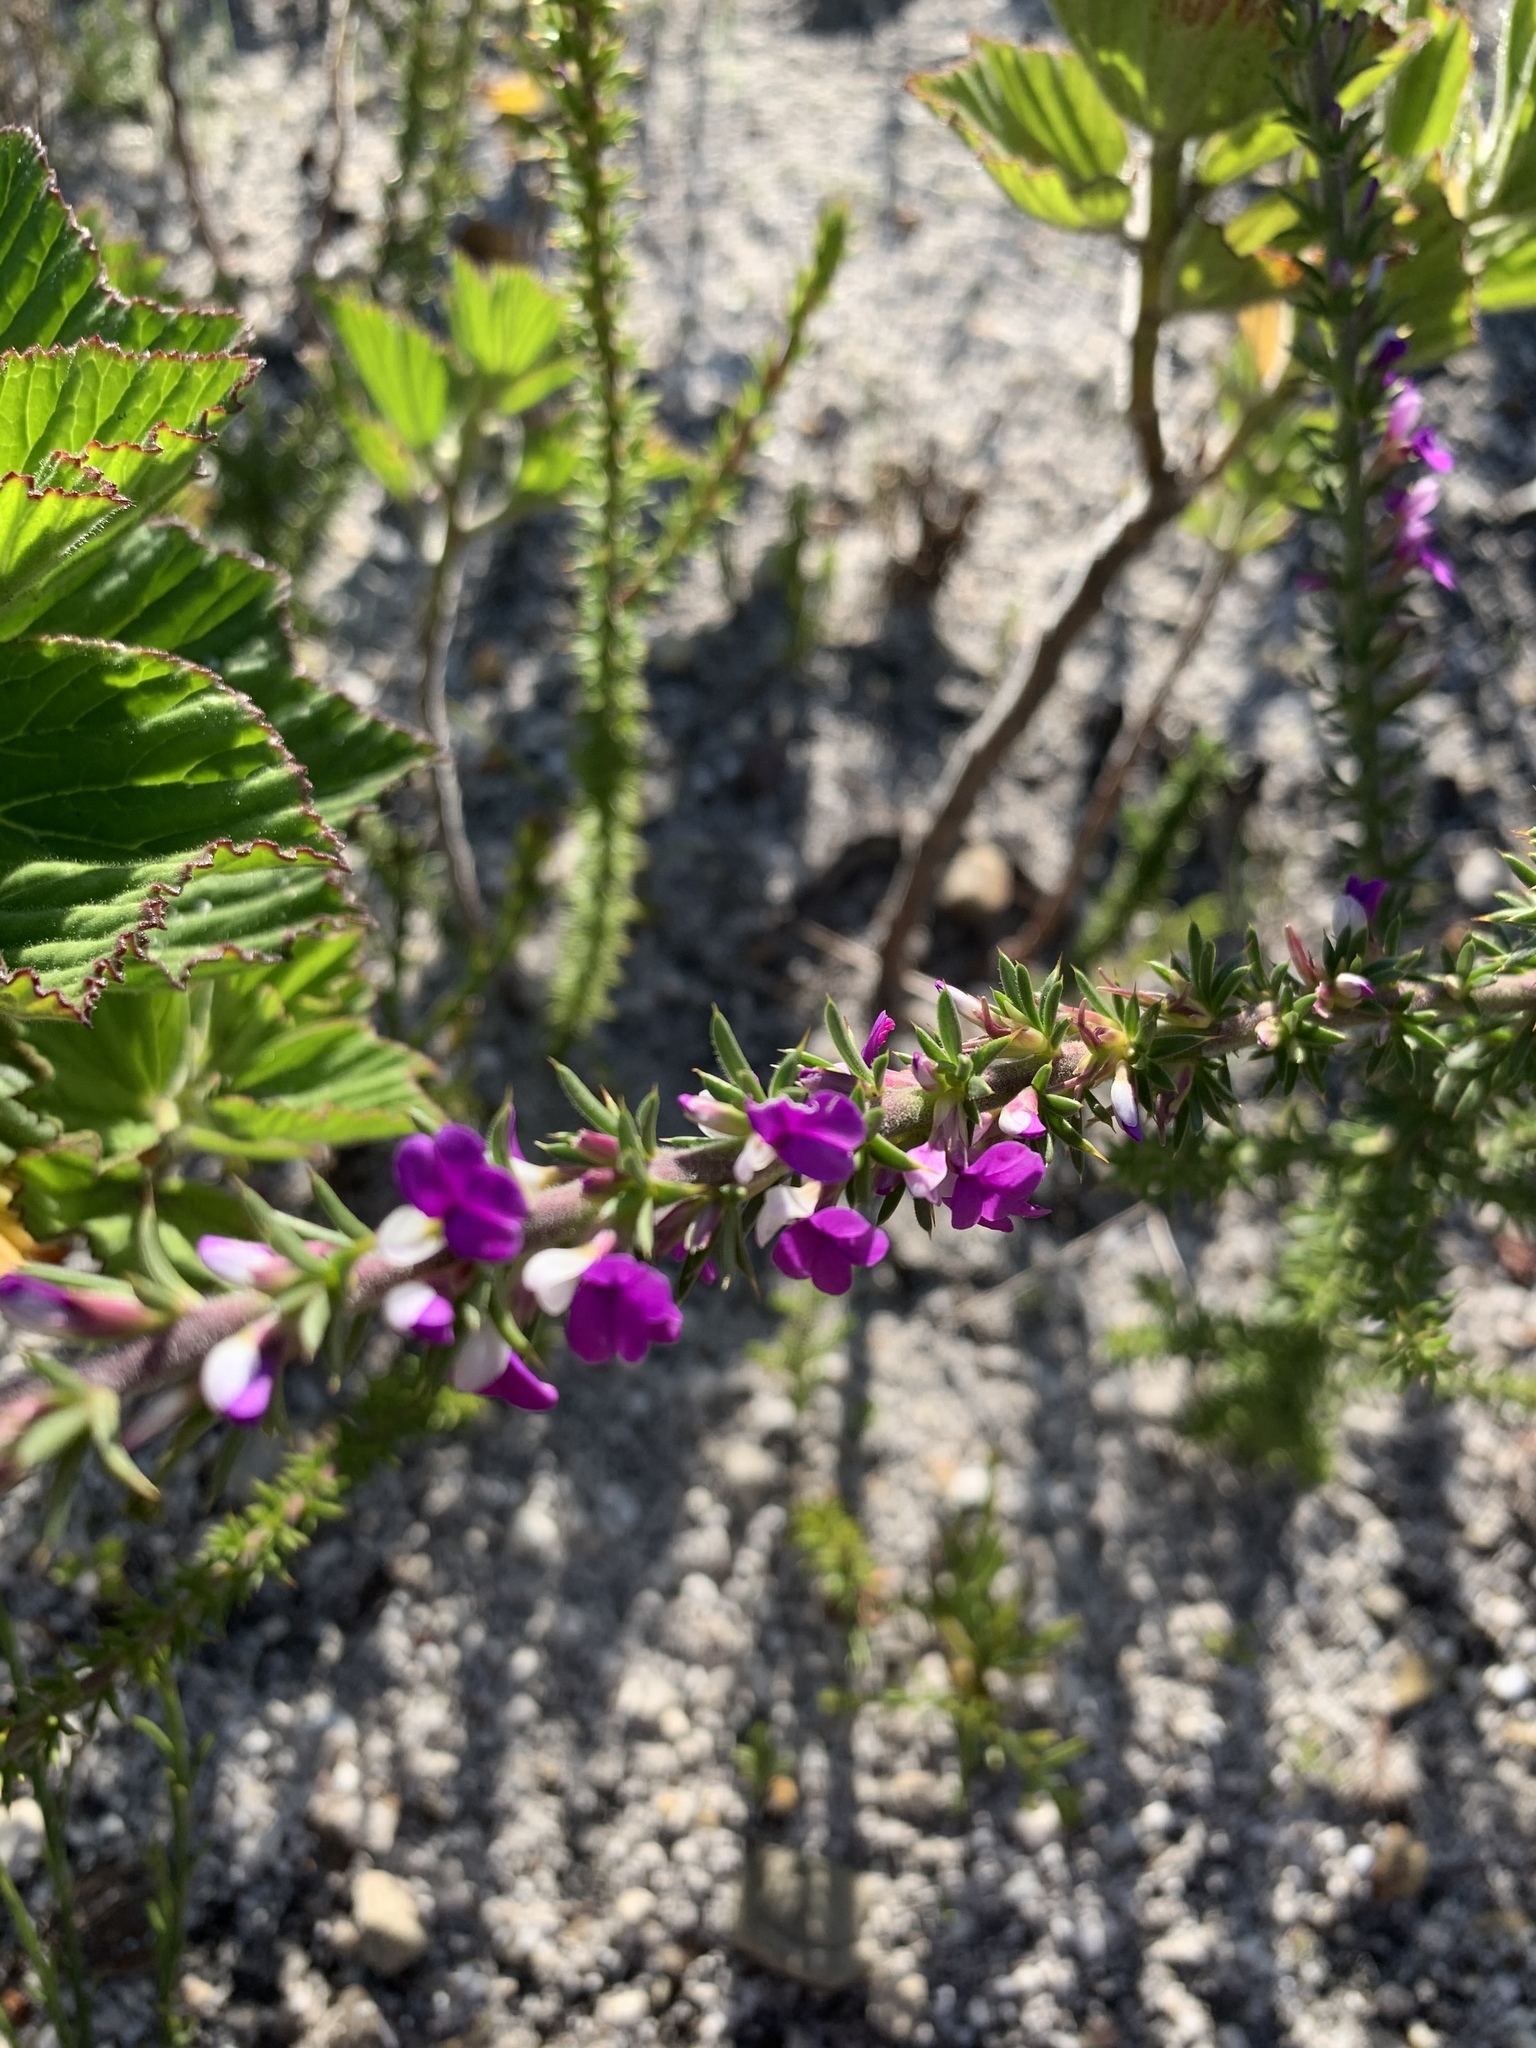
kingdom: Plantae
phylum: Tracheophyta
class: Magnoliopsida
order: Fabales
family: Polygalaceae
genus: Muraltia
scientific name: Muraltia heisteria
